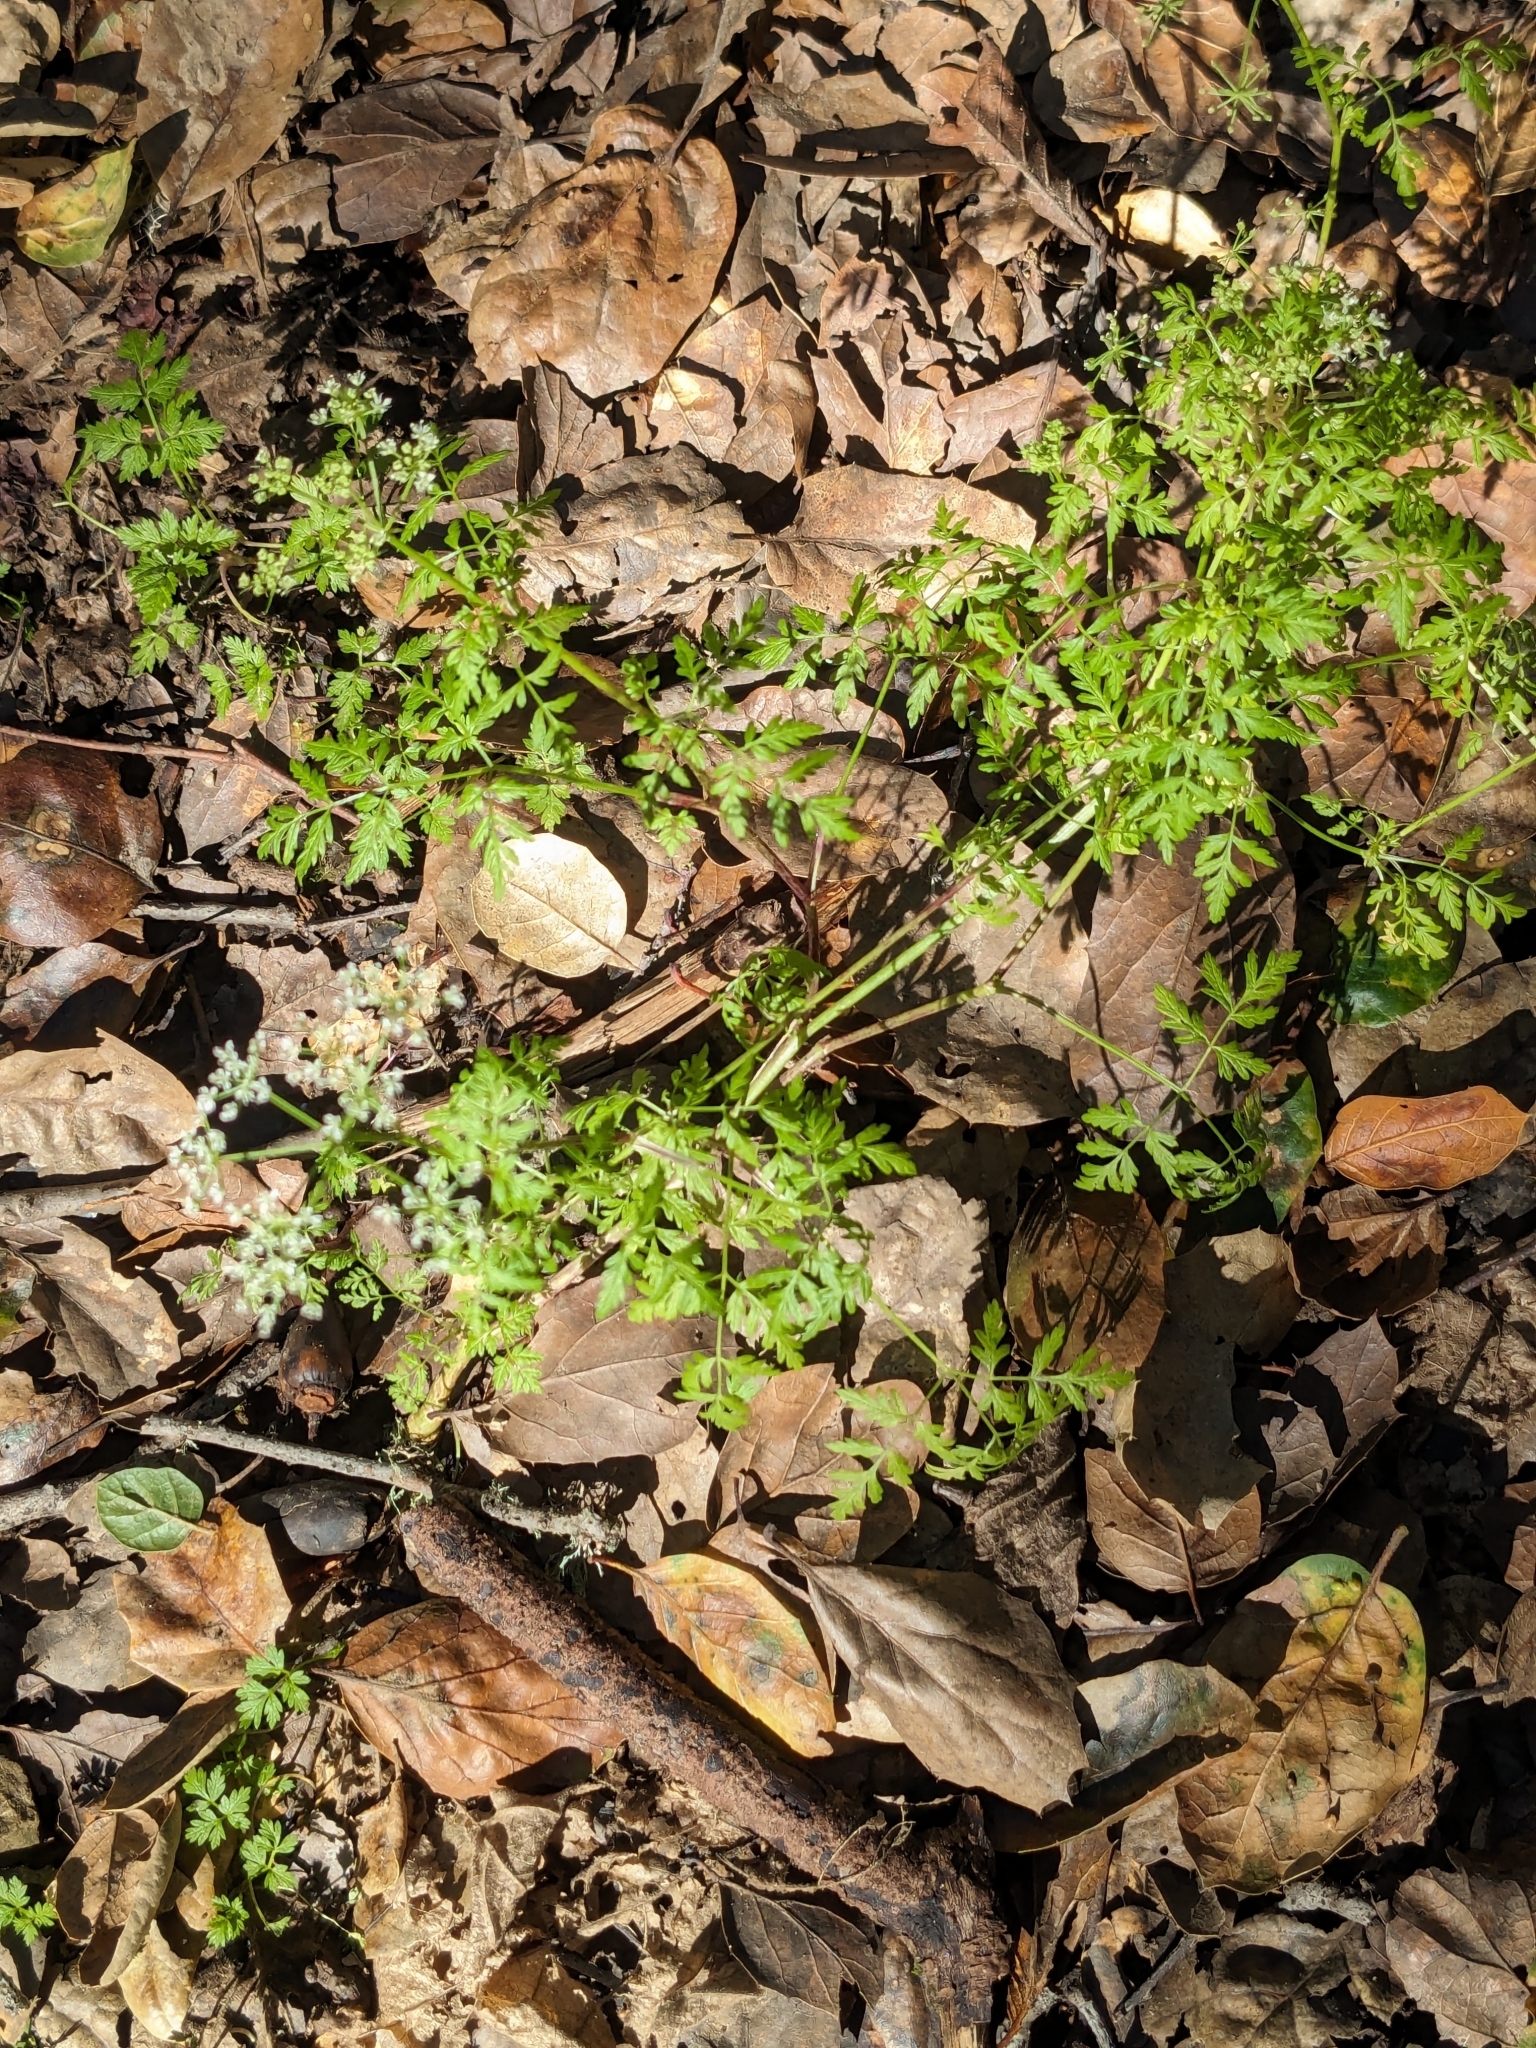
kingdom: Plantae
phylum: Tracheophyta
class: Magnoliopsida
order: Apiales
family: Apiaceae
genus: Conium
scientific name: Conium maculatum
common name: Hemlock
